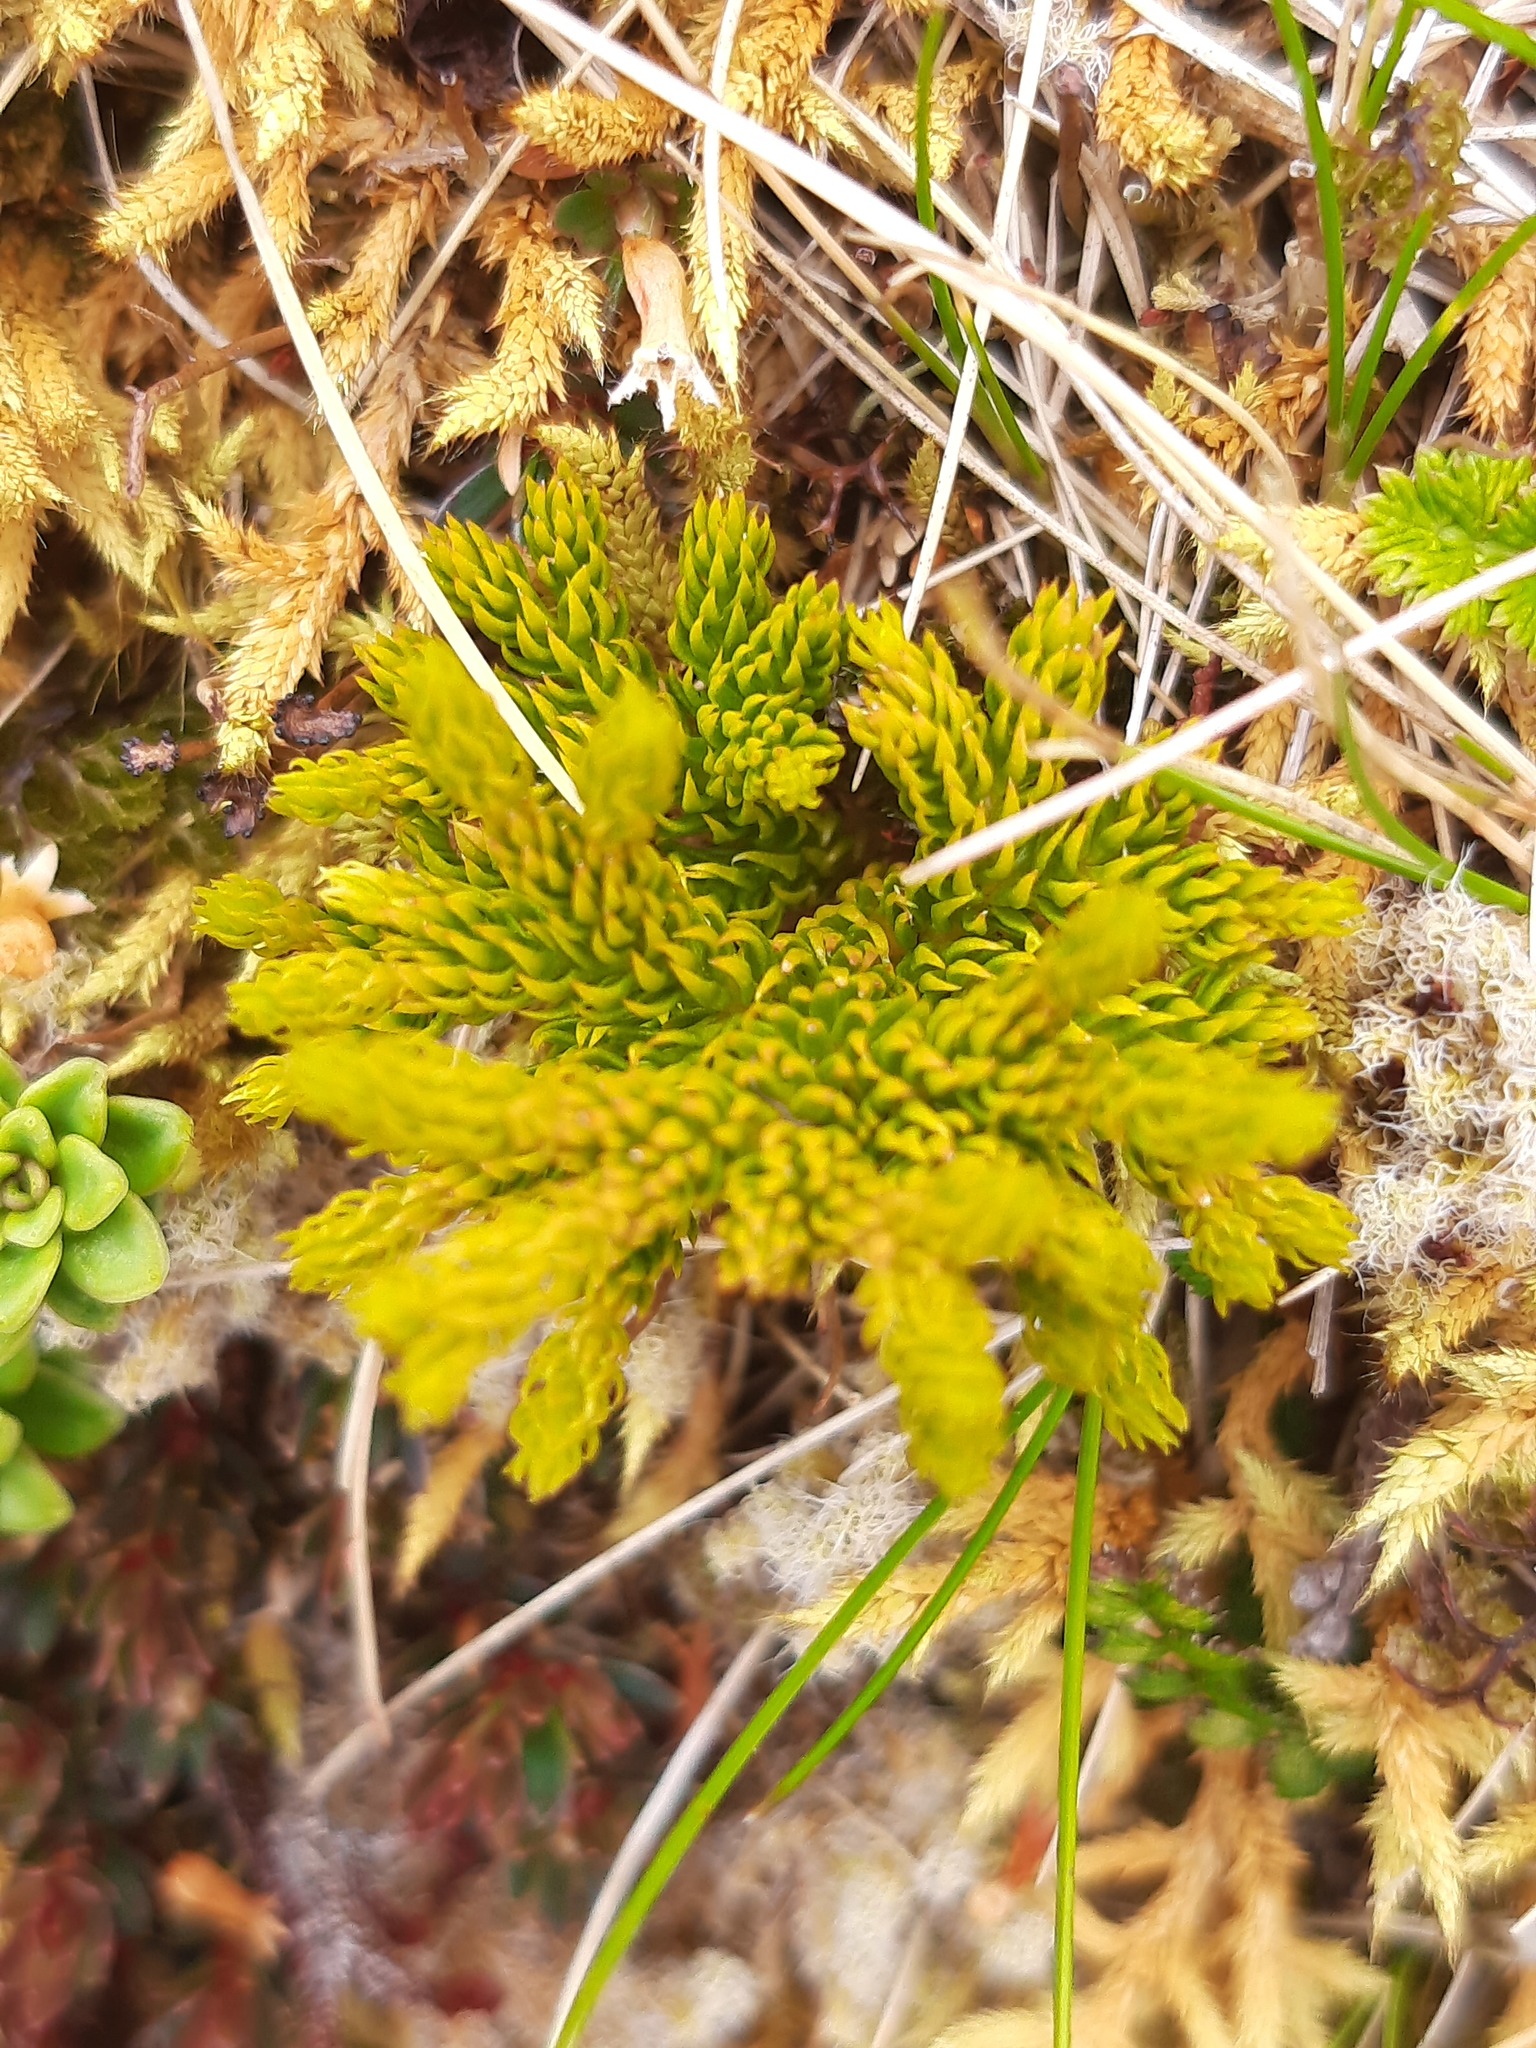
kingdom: Plantae
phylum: Tracheophyta
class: Lycopodiopsida
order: Lycopodiales
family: Lycopodiaceae
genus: Austrolycopodium
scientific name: Austrolycopodium fastigiatum
